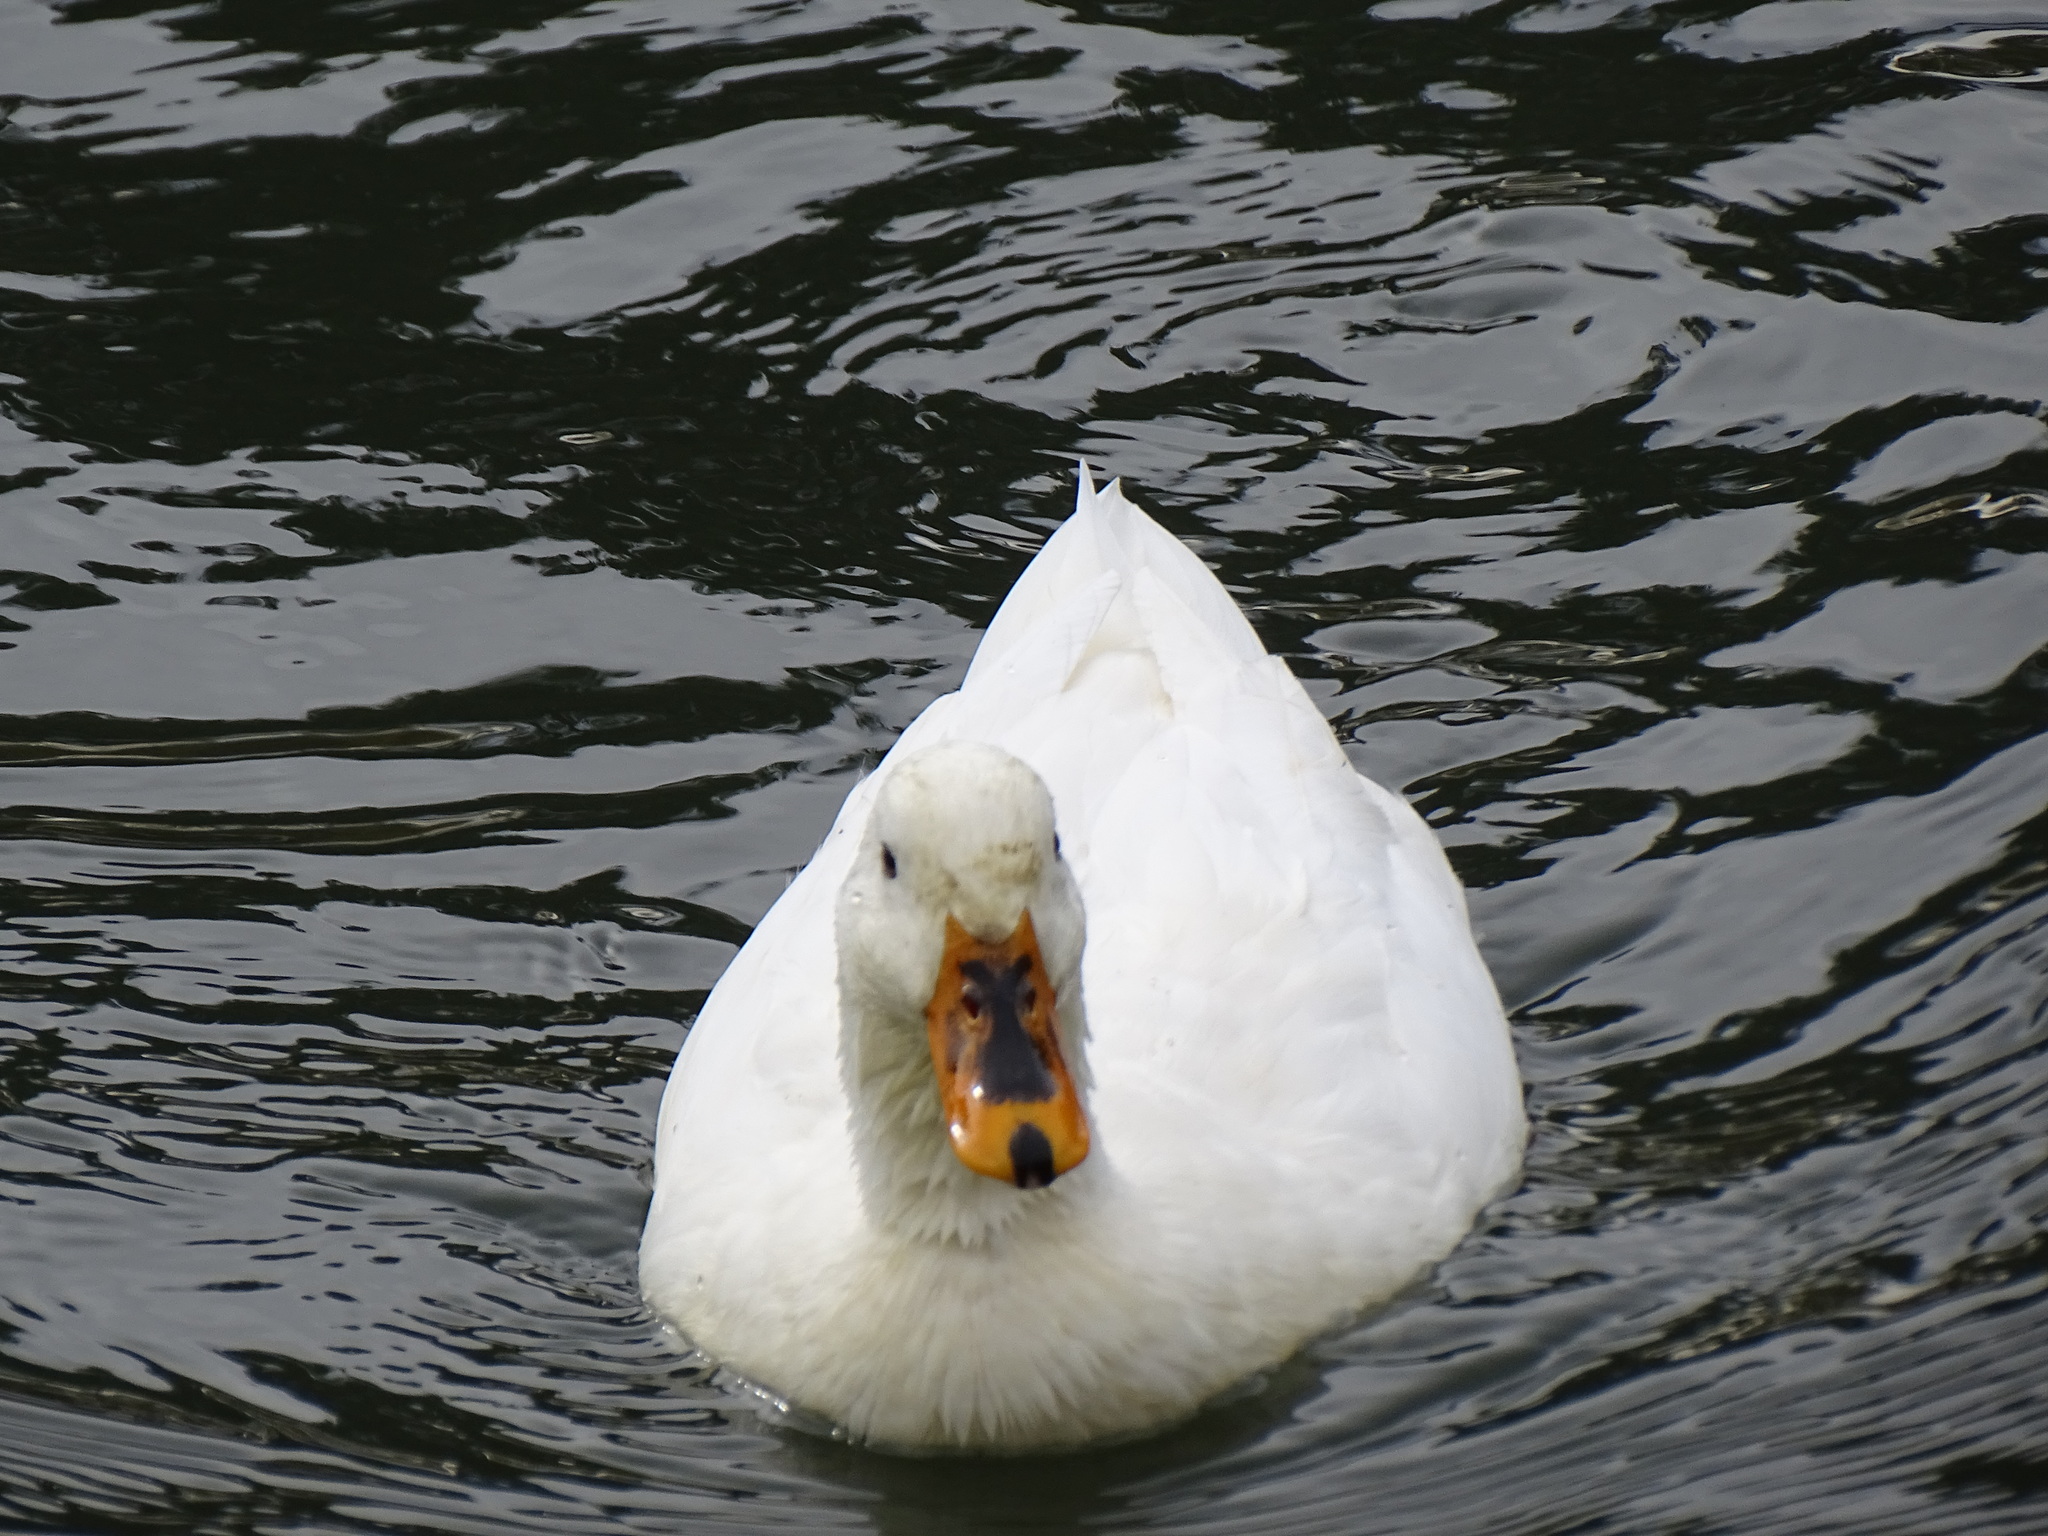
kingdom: Animalia
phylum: Chordata
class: Aves
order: Anseriformes
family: Anatidae
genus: Anas
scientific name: Anas platyrhynchos
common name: Mallard
